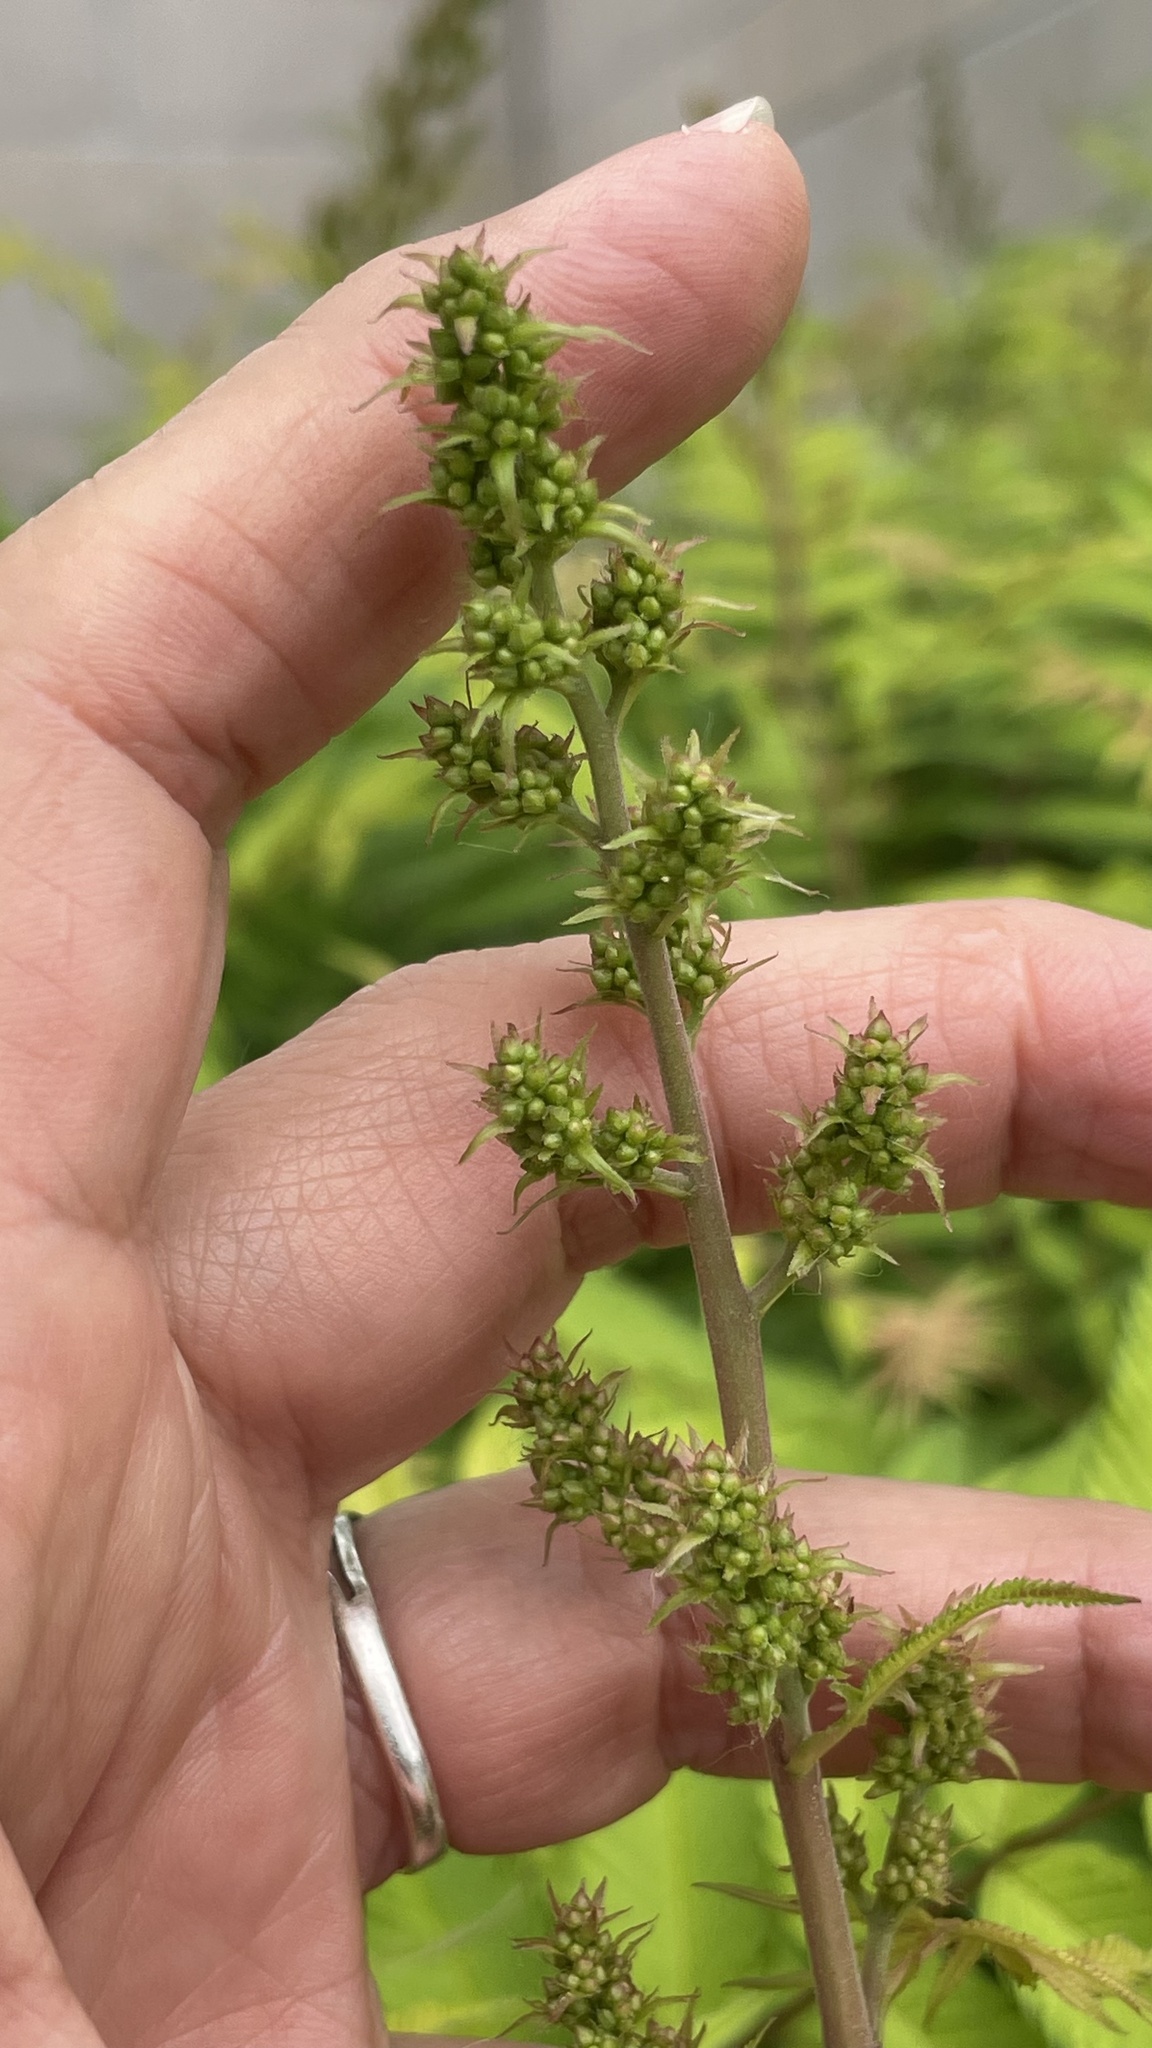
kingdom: Plantae
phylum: Tracheophyta
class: Magnoliopsida
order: Rosales
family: Rosaceae
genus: Sorbaria
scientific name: Sorbaria sorbifolia
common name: False spiraea
